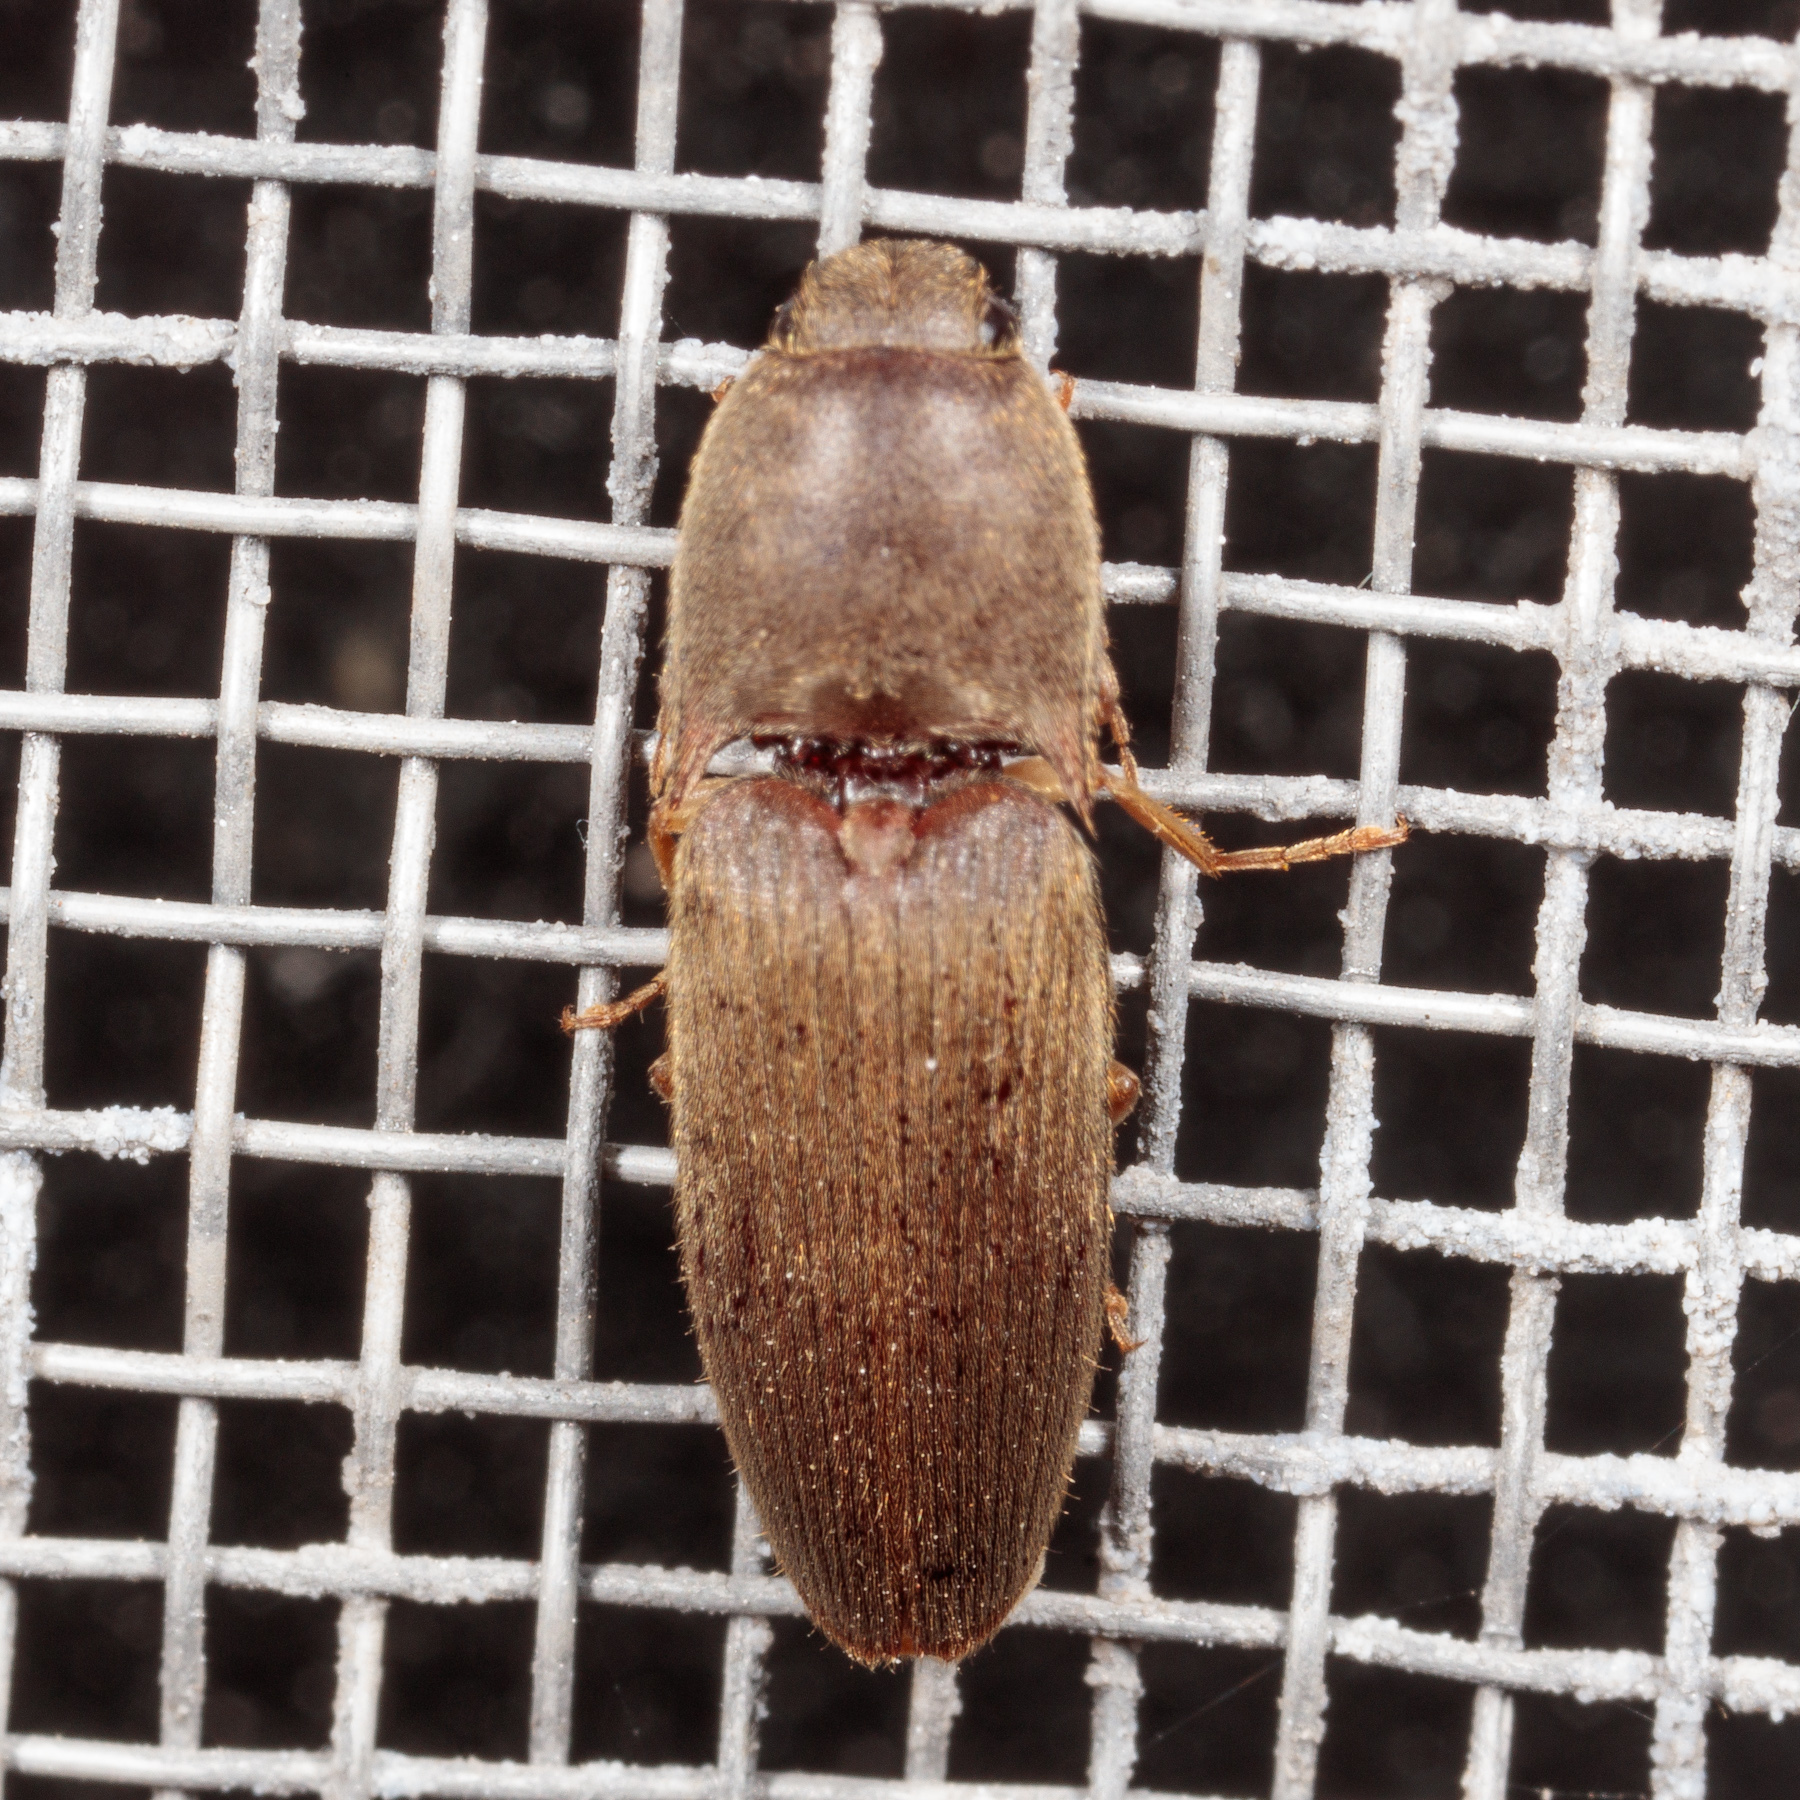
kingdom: Animalia
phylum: Arthropoda
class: Insecta
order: Coleoptera
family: Elateridae
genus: Conoderus
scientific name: Conoderus exsul
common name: Click beetle
